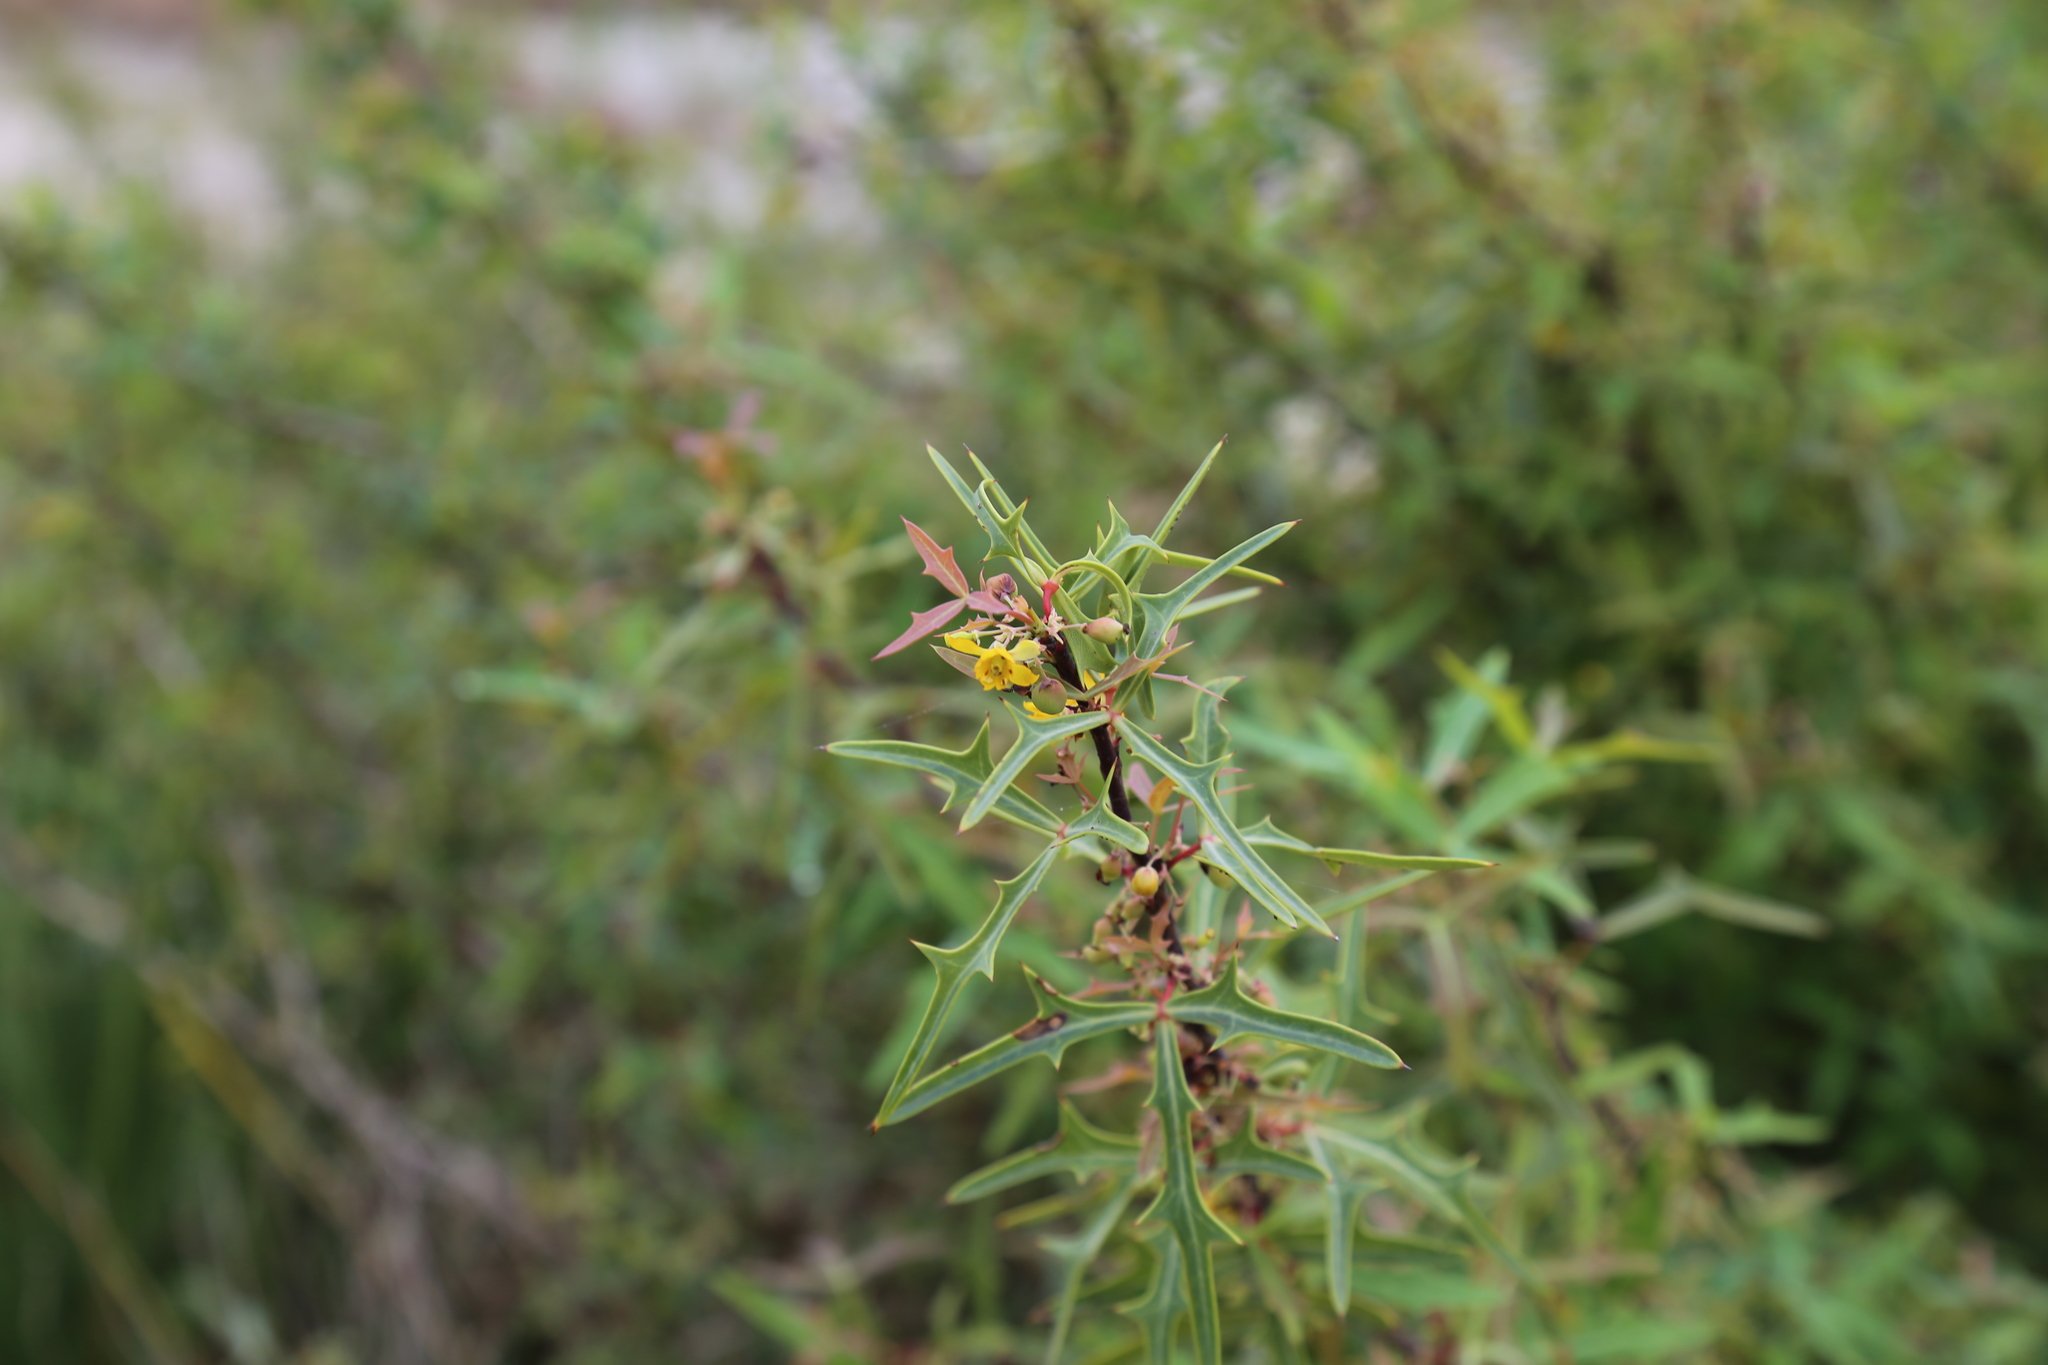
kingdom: Plantae
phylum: Tracheophyta
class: Magnoliopsida
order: Ranunculales
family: Berberidaceae
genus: Alloberberis
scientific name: Alloberberis trifoliolata
